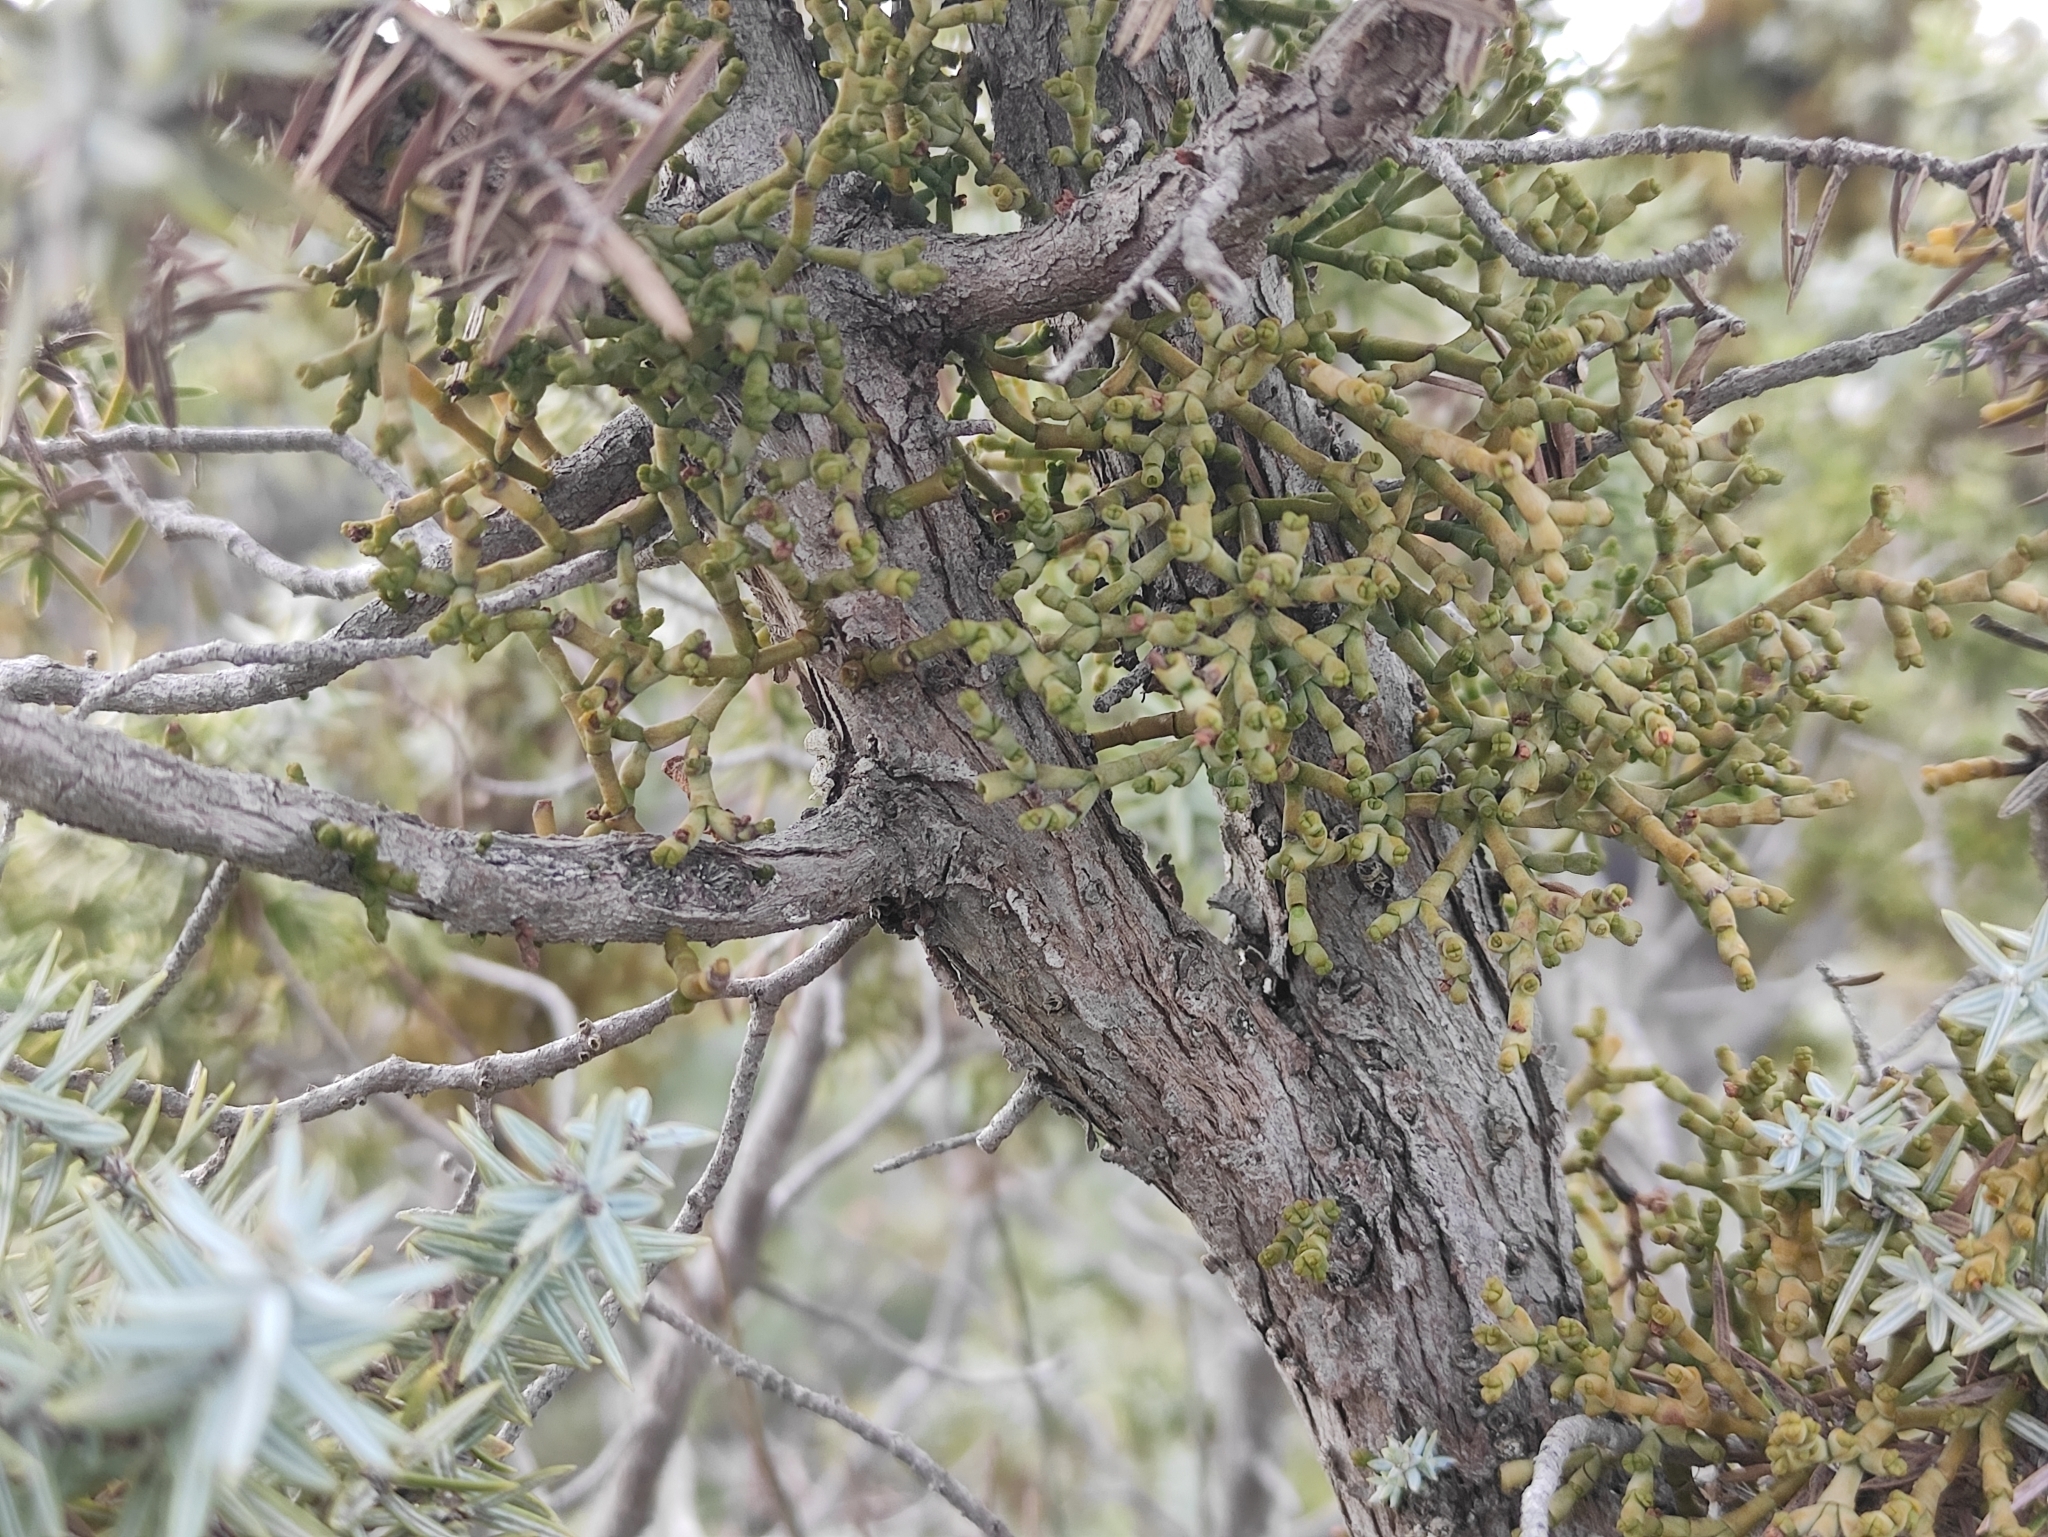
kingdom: Plantae
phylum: Tracheophyta
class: Magnoliopsida
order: Santalales
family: Viscaceae
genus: Arceuthobium
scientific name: Arceuthobium oxycedri
